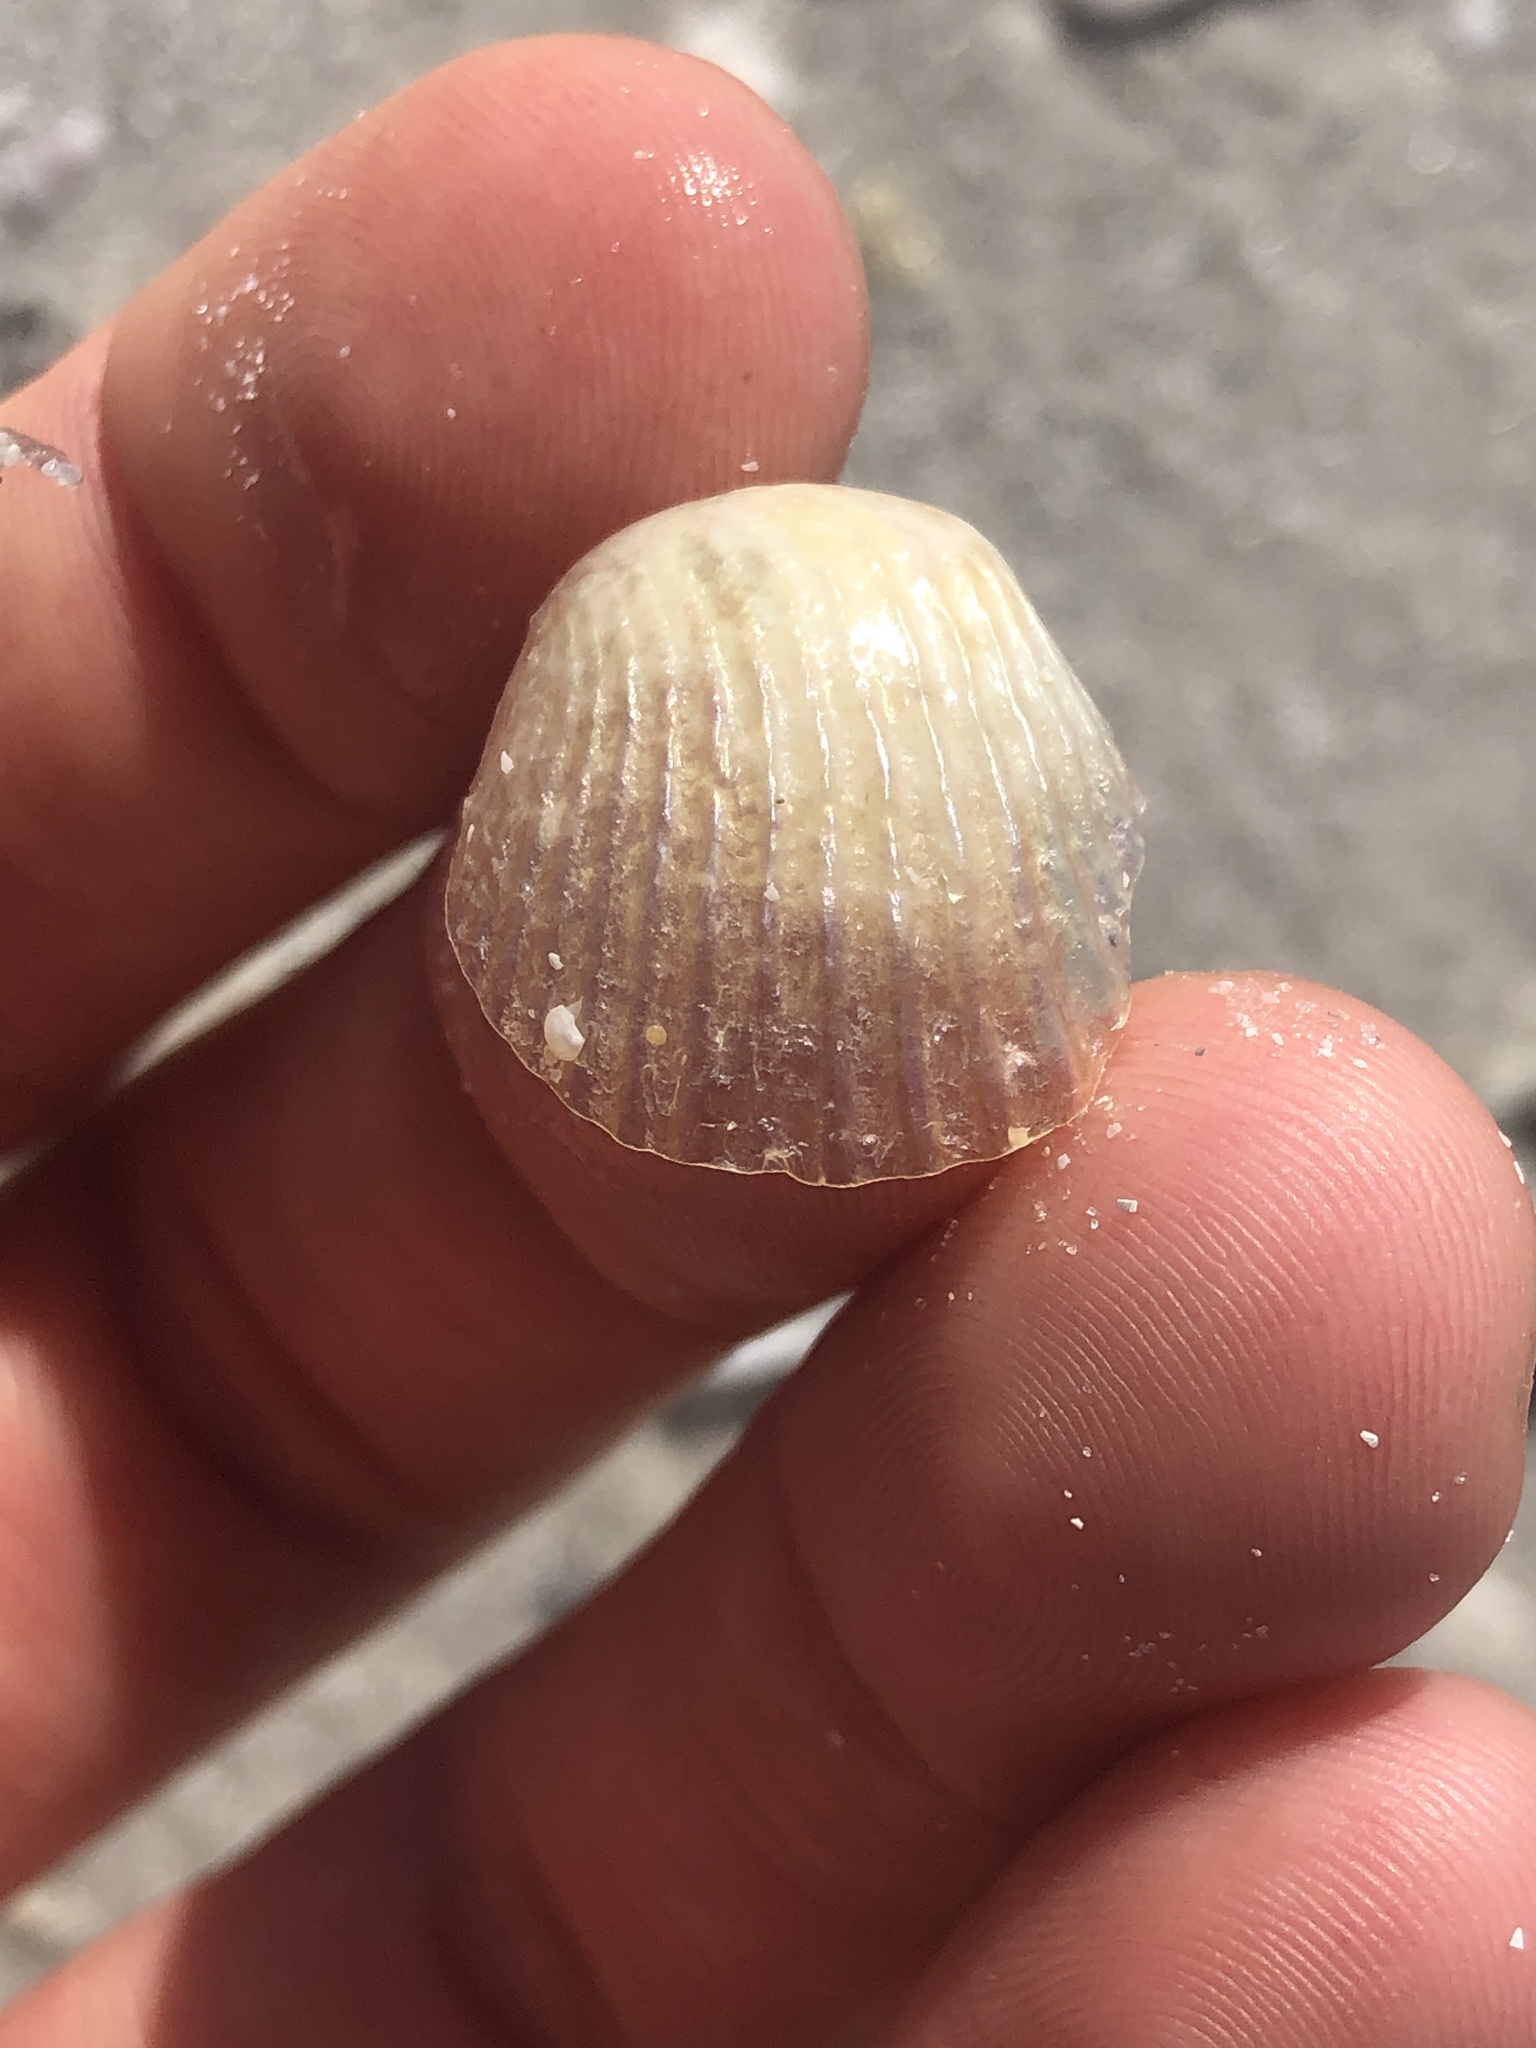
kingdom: Animalia
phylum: Mollusca
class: Bivalvia
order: Pectinida
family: Anomiidae
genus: Anomia
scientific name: Anomia simplex
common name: Common jingle shell
